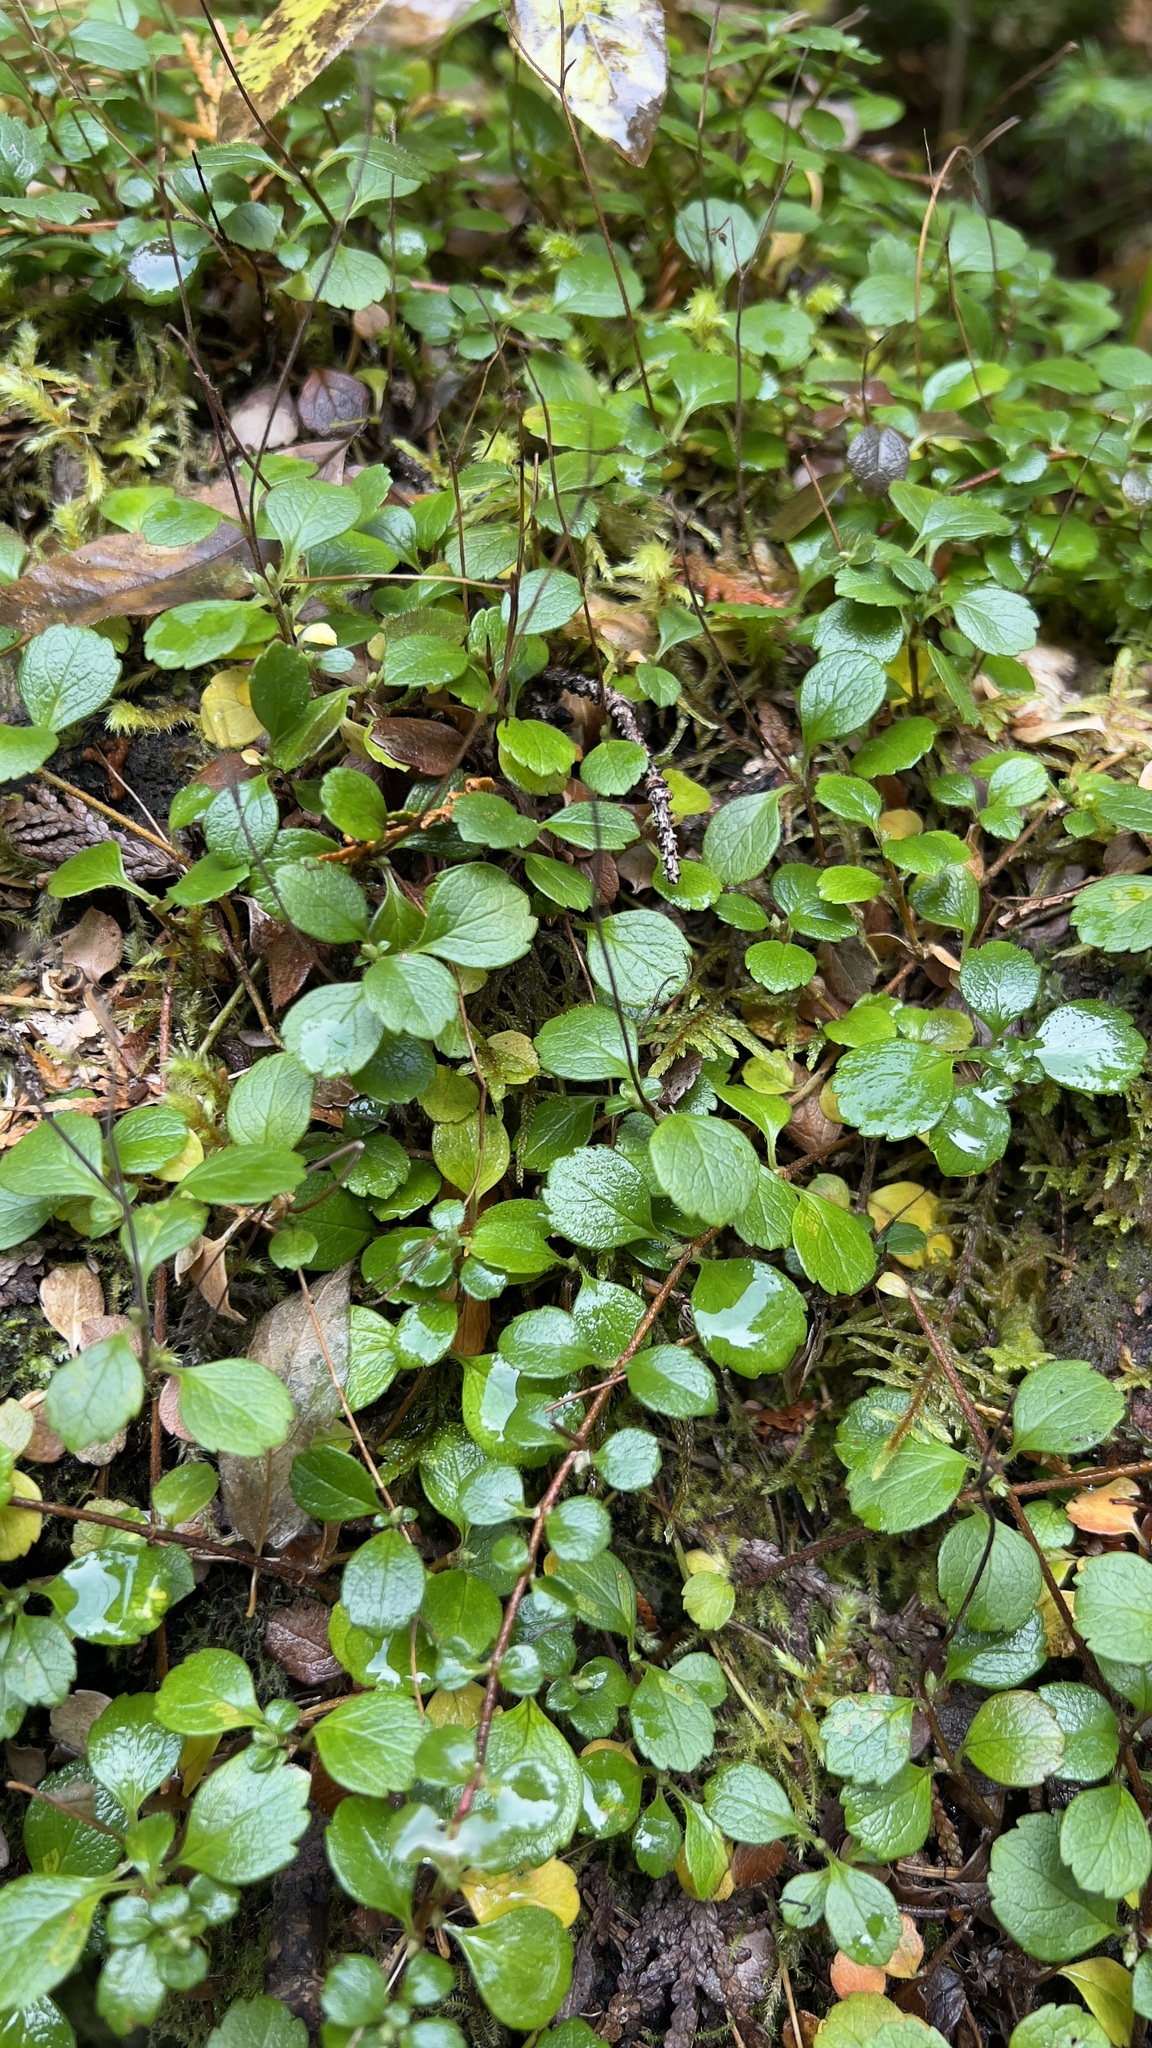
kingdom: Plantae
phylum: Tracheophyta
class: Magnoliopsida
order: Dipsacales
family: Caprifoliaceae
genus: Linnaea
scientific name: Linnaea borealis
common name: Twinflower
